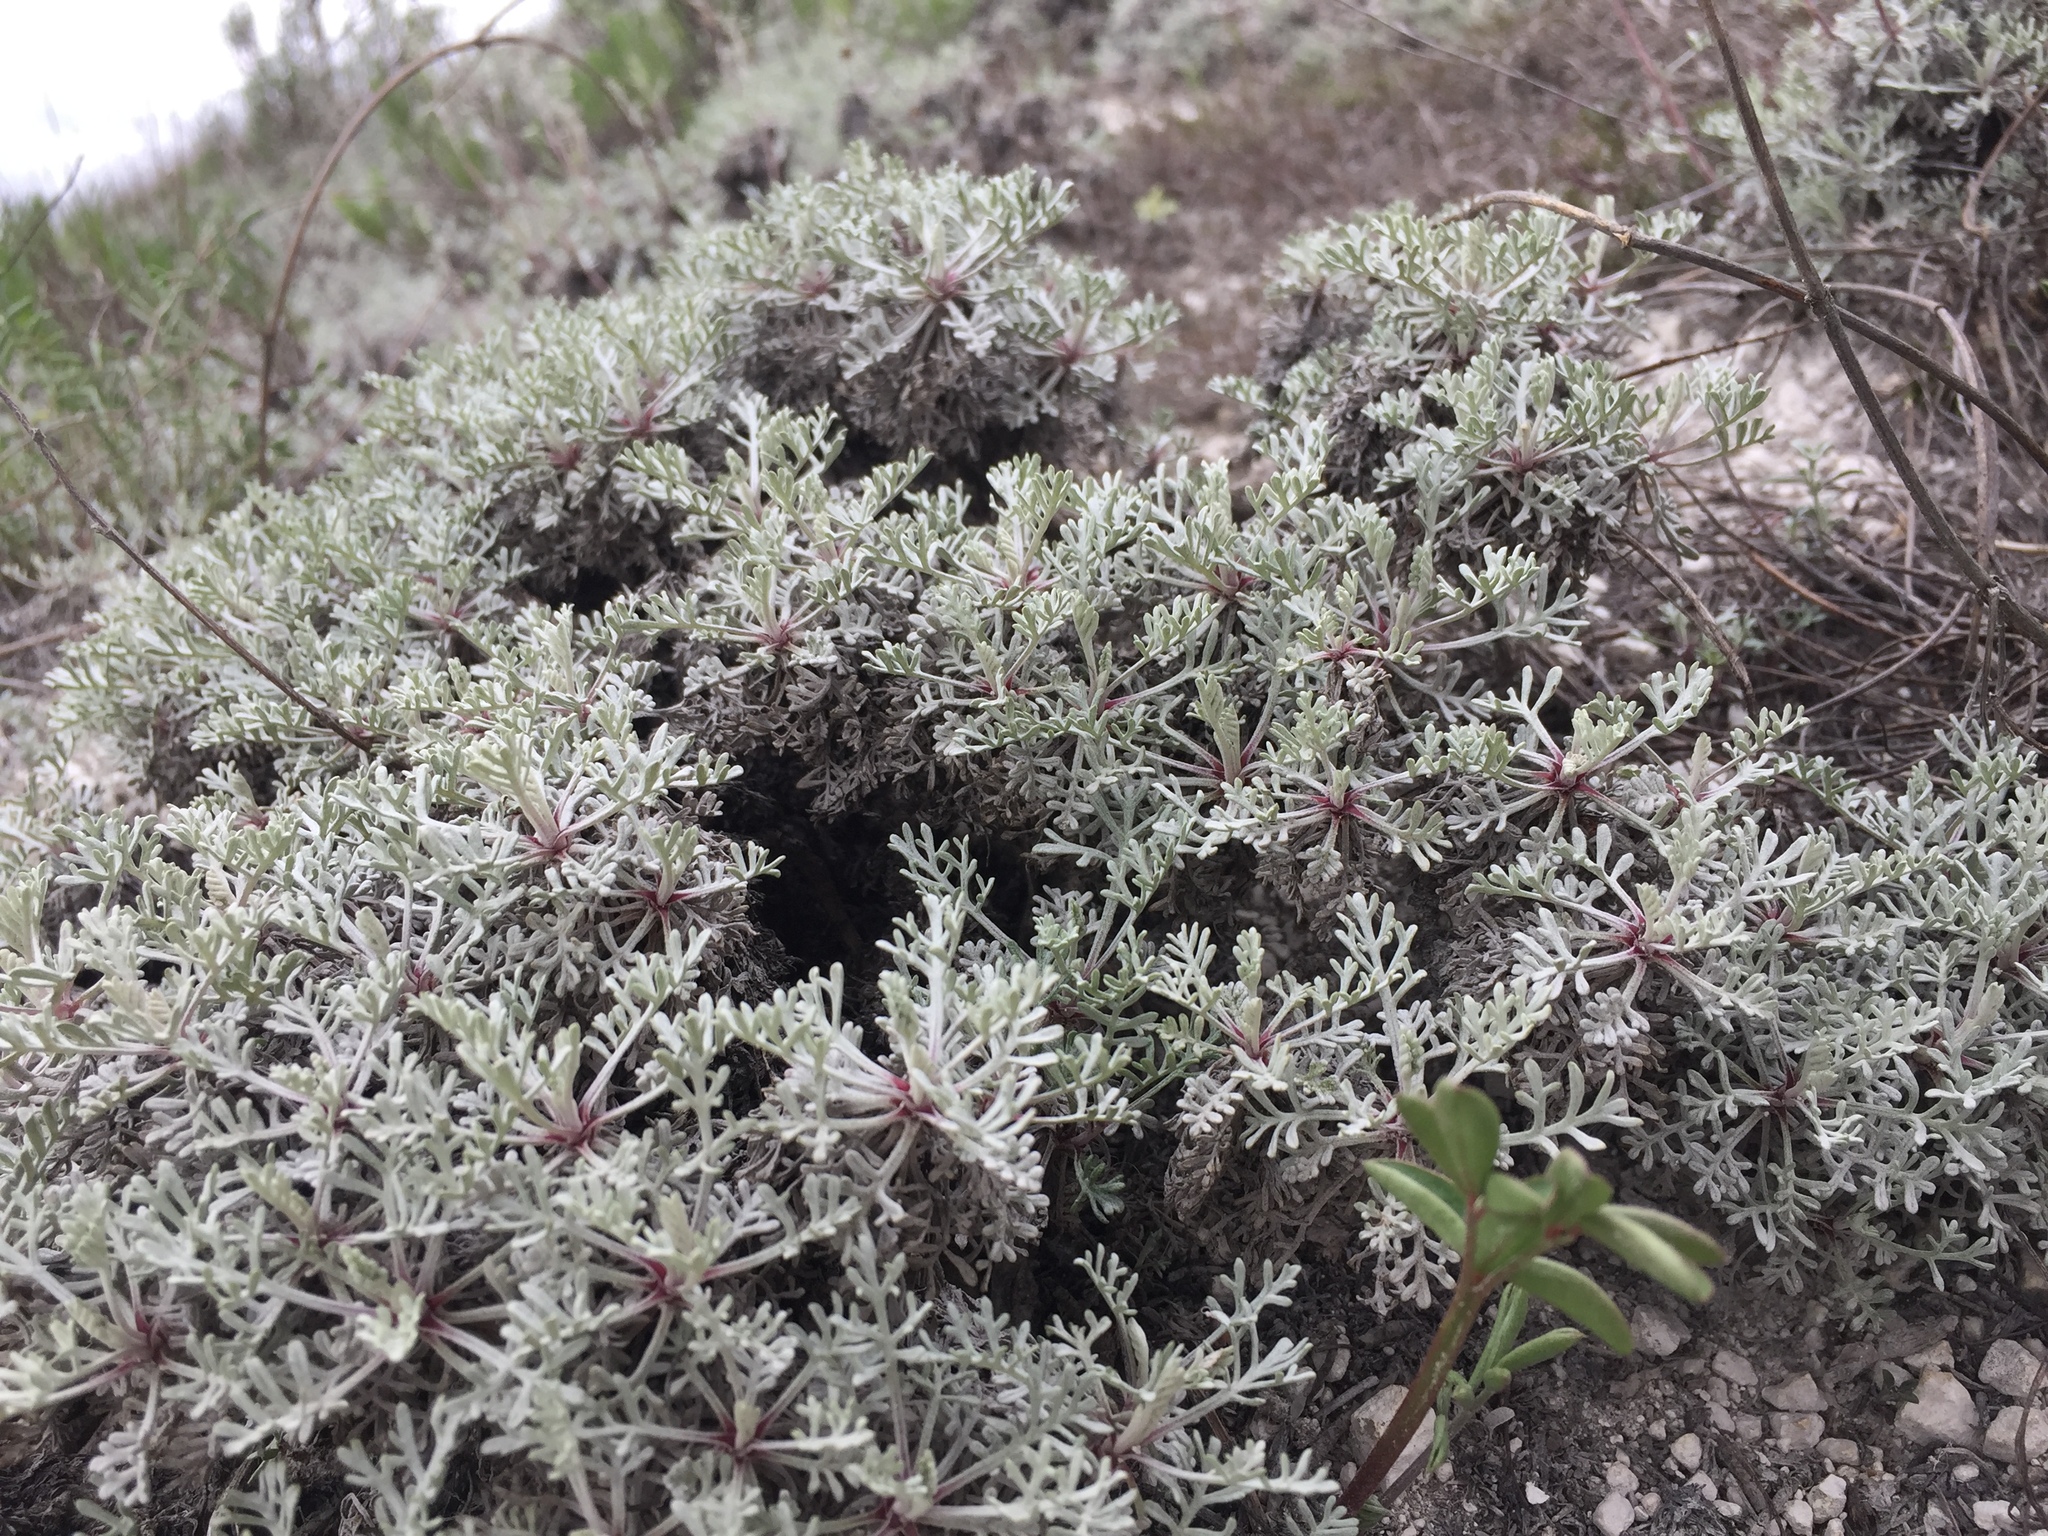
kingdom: Plantae
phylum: Tracheophyta
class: Magnoliopsida
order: Asterales
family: Asteraceae
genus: Artemisia
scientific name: Artemisia hololeuca
